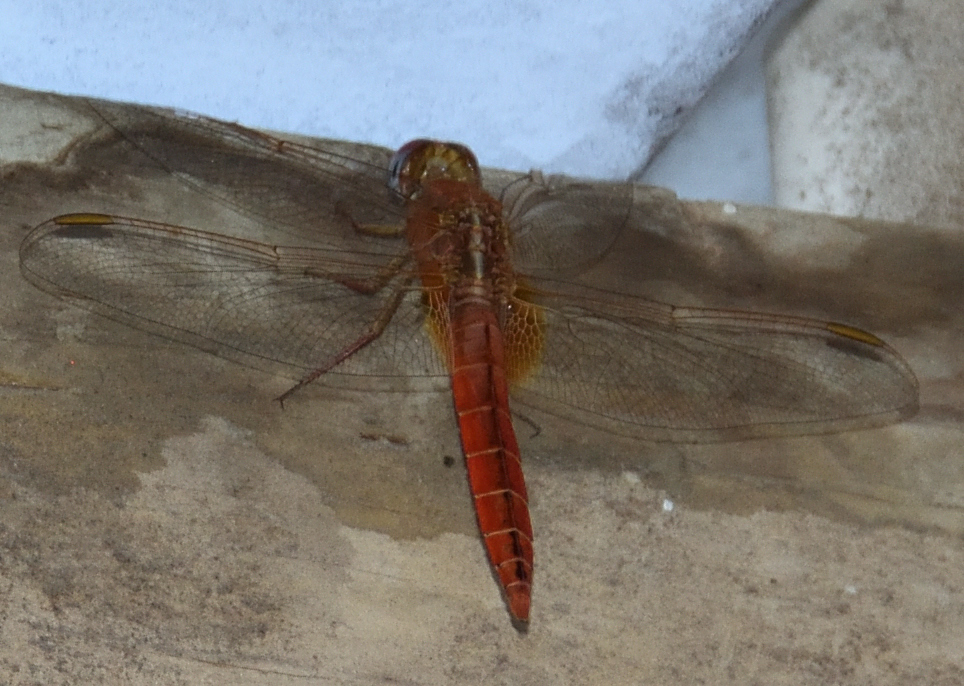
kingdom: Animalia
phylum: Arthropoda
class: Insecta
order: Odonata
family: Libellulidae
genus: Crocothemis
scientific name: Crocothemis erythraea
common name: Scarlet dragonfly
